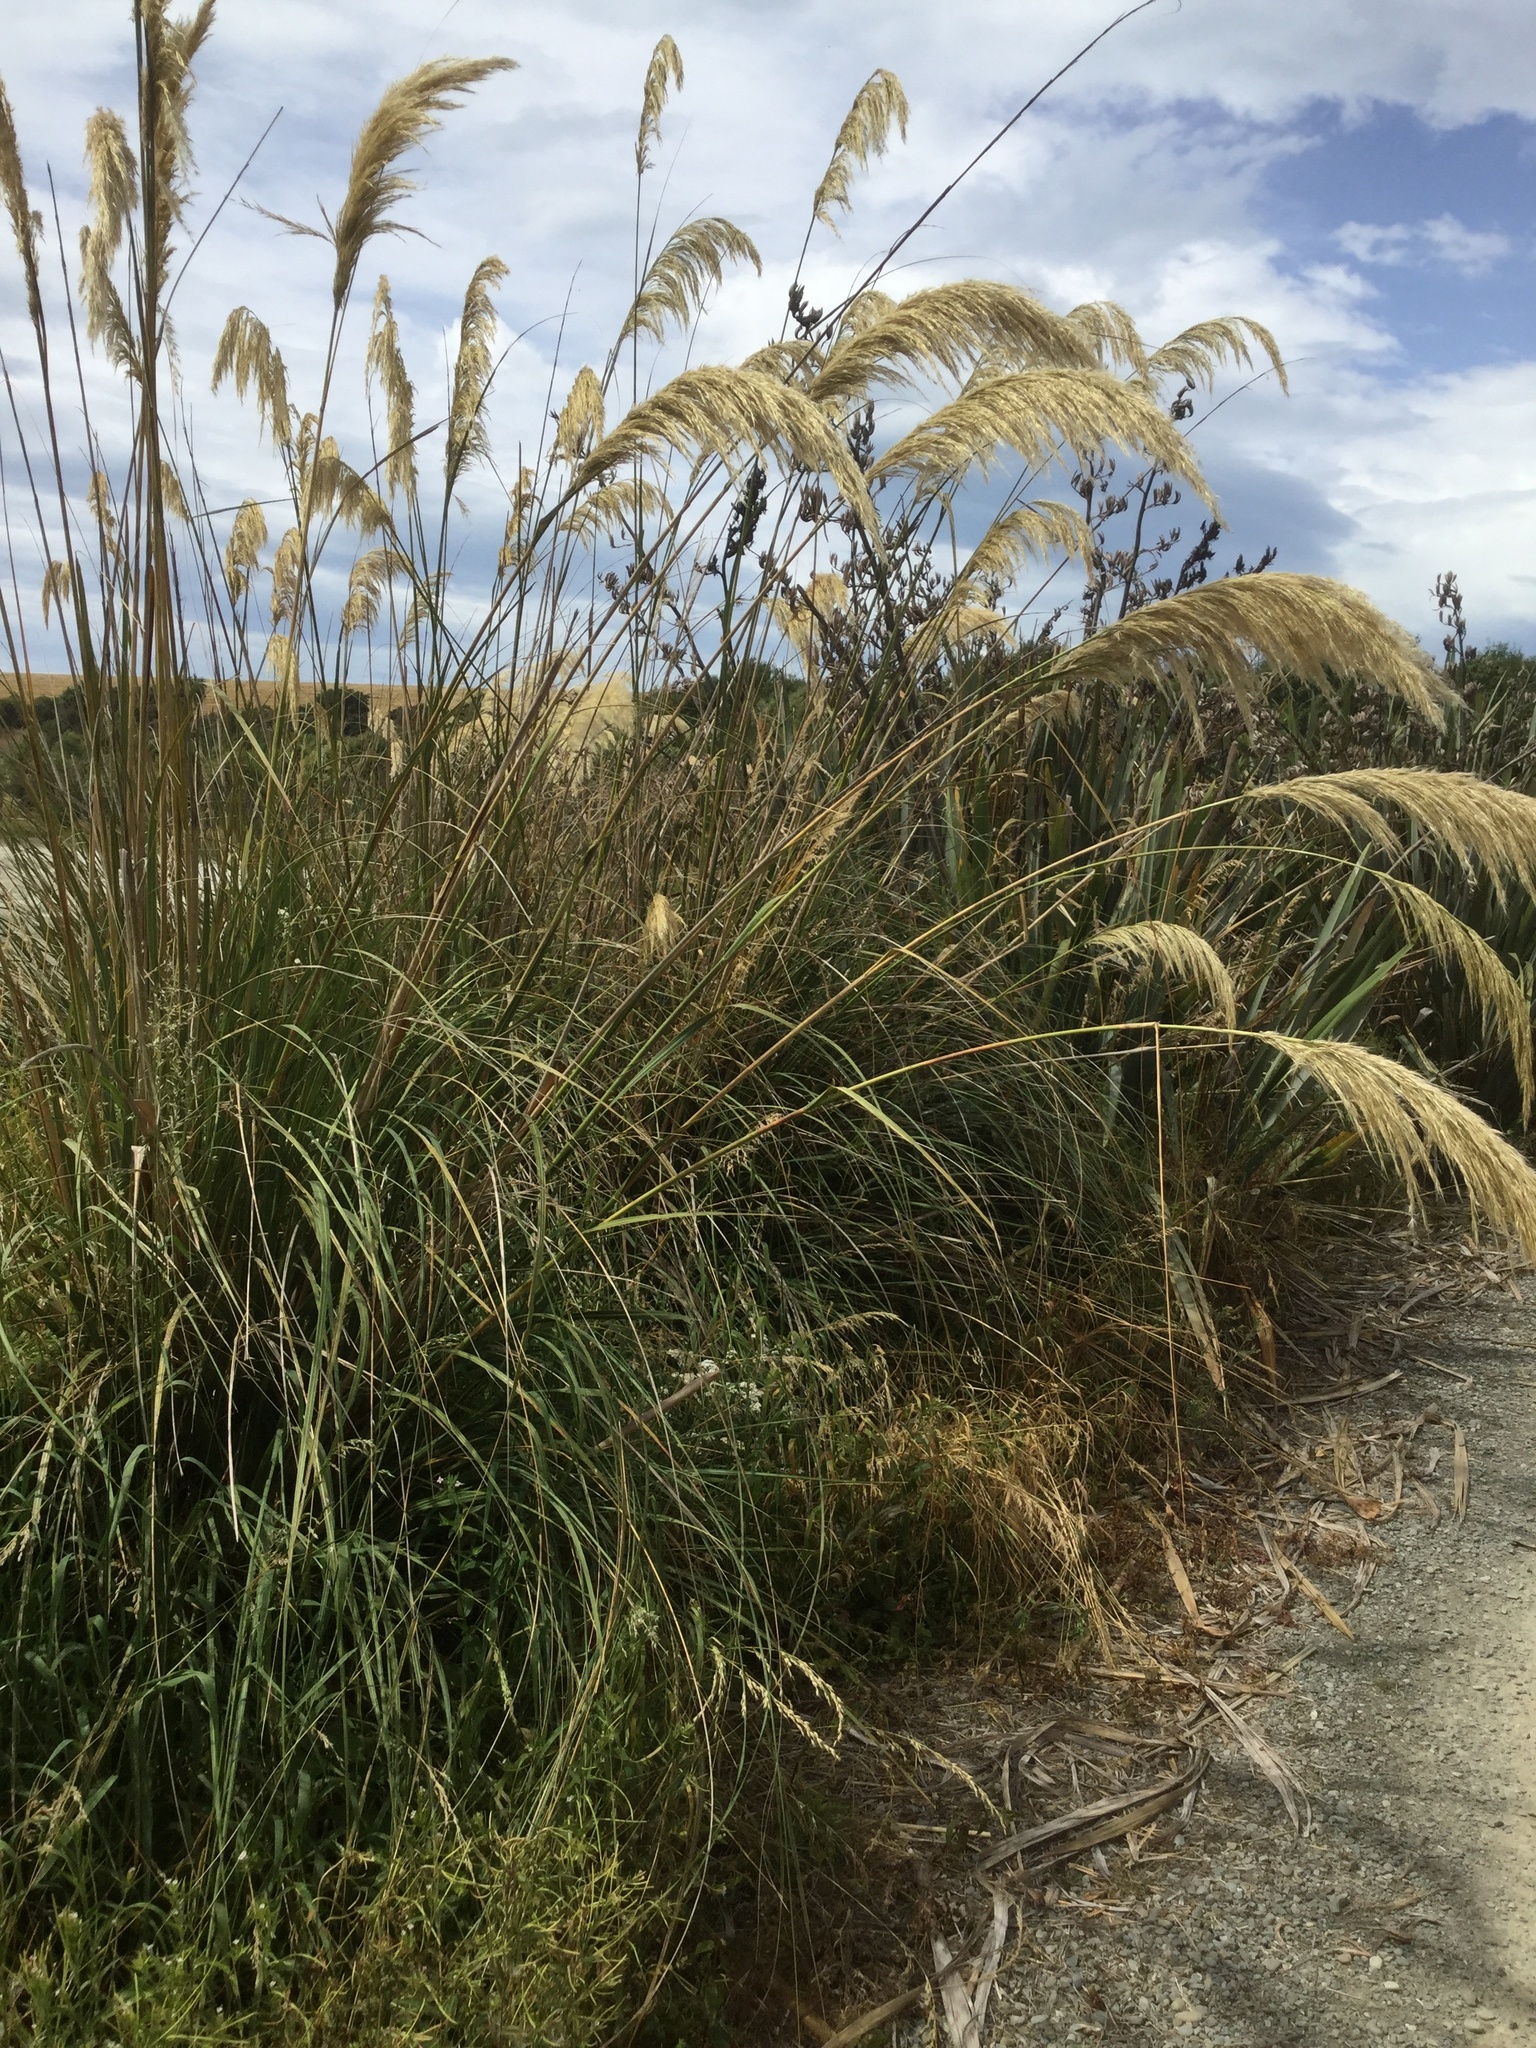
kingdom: Plantae
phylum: Tracheophyta
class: Liliopsida
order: Poales
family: Poaceae
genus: Austroderia
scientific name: Austroderia richardii
